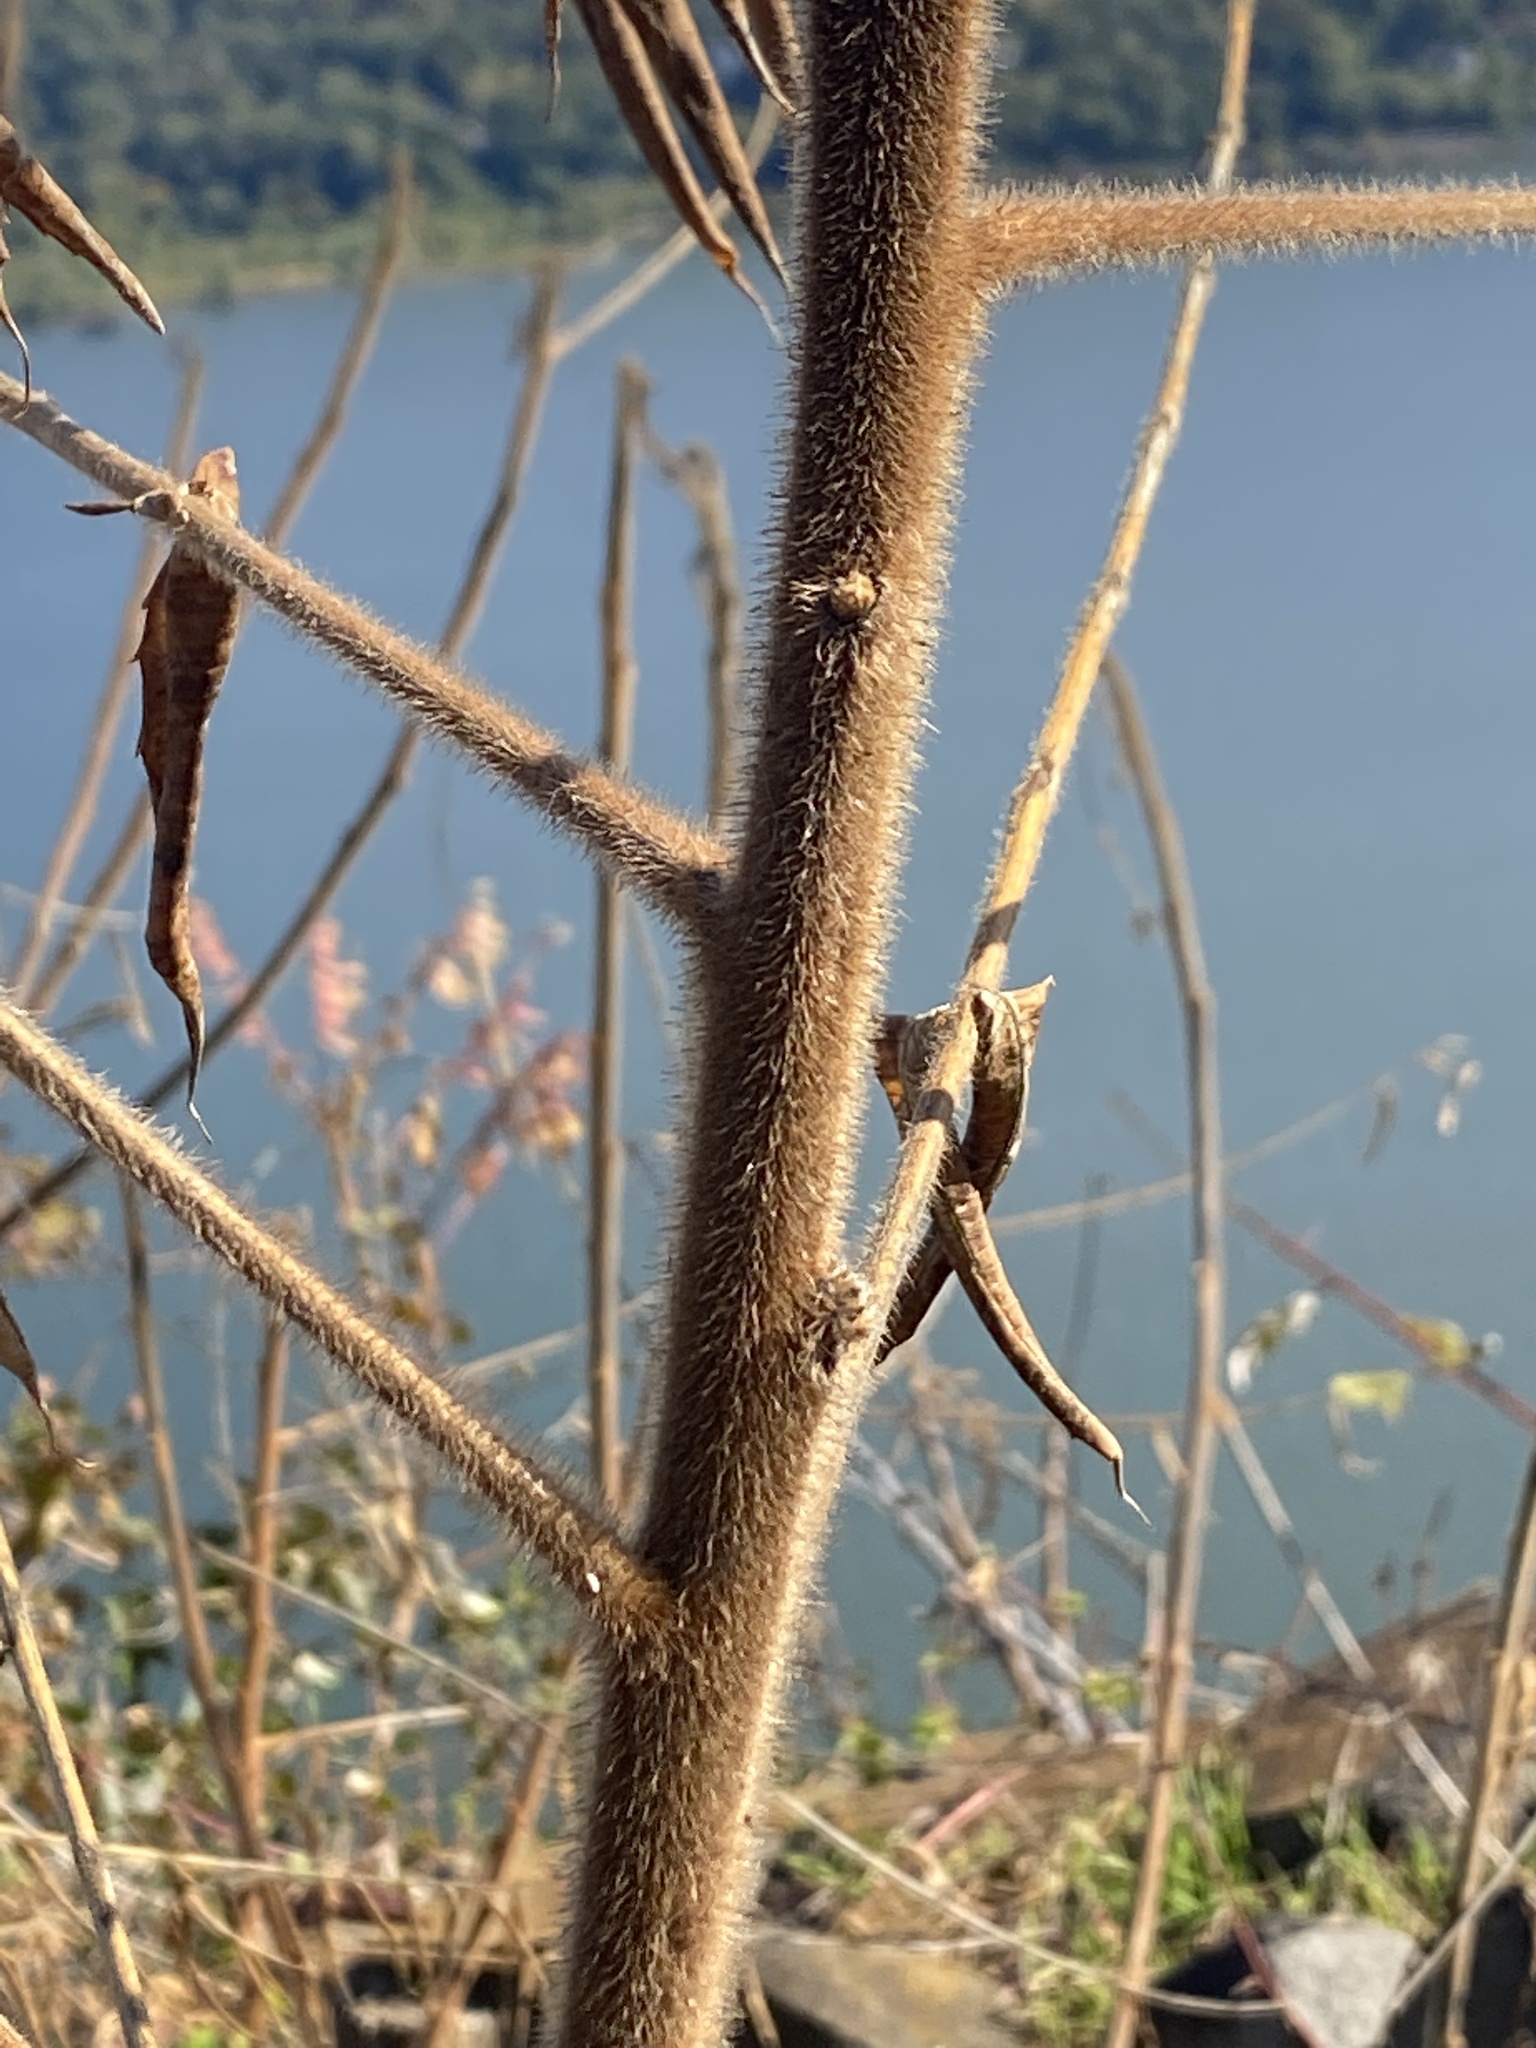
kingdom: Plantae
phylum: Tracheophyta
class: Magnoliopsida
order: Sapindales
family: Anacardiaceae
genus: Rhus
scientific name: Rhus typhina
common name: Staghorn sumac
